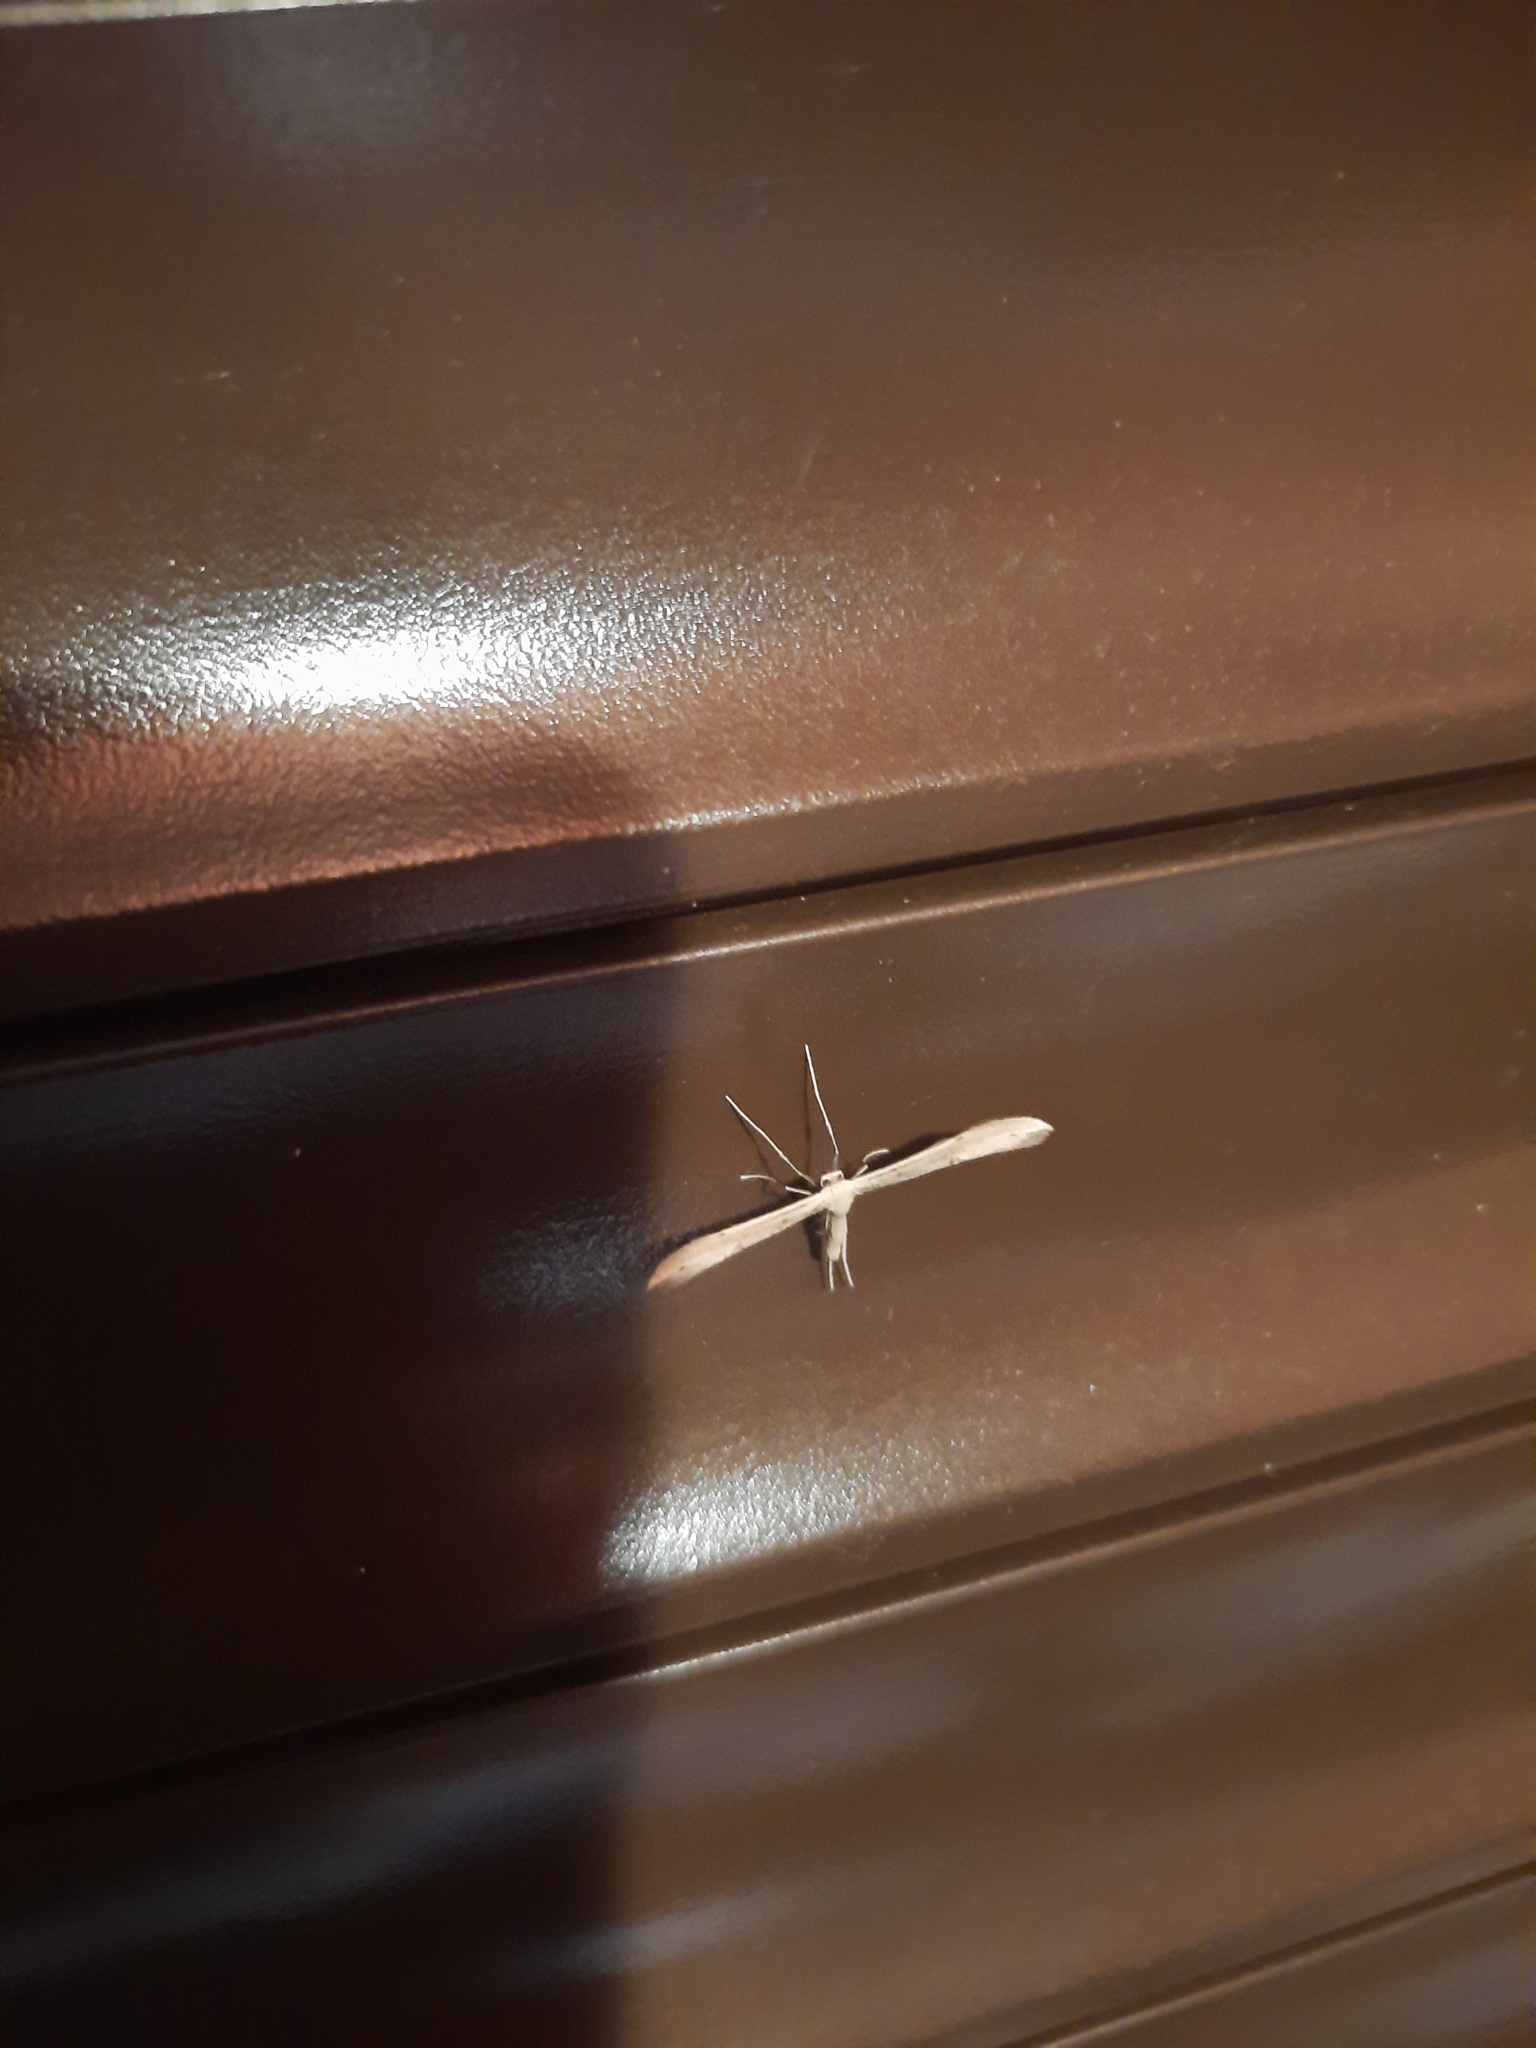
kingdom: Animalia
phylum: Arthropoda
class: Insecta
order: Lepidoptera
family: Pterophoridae
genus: Emmelina
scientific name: Emmelina monodactyla
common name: Common plume
